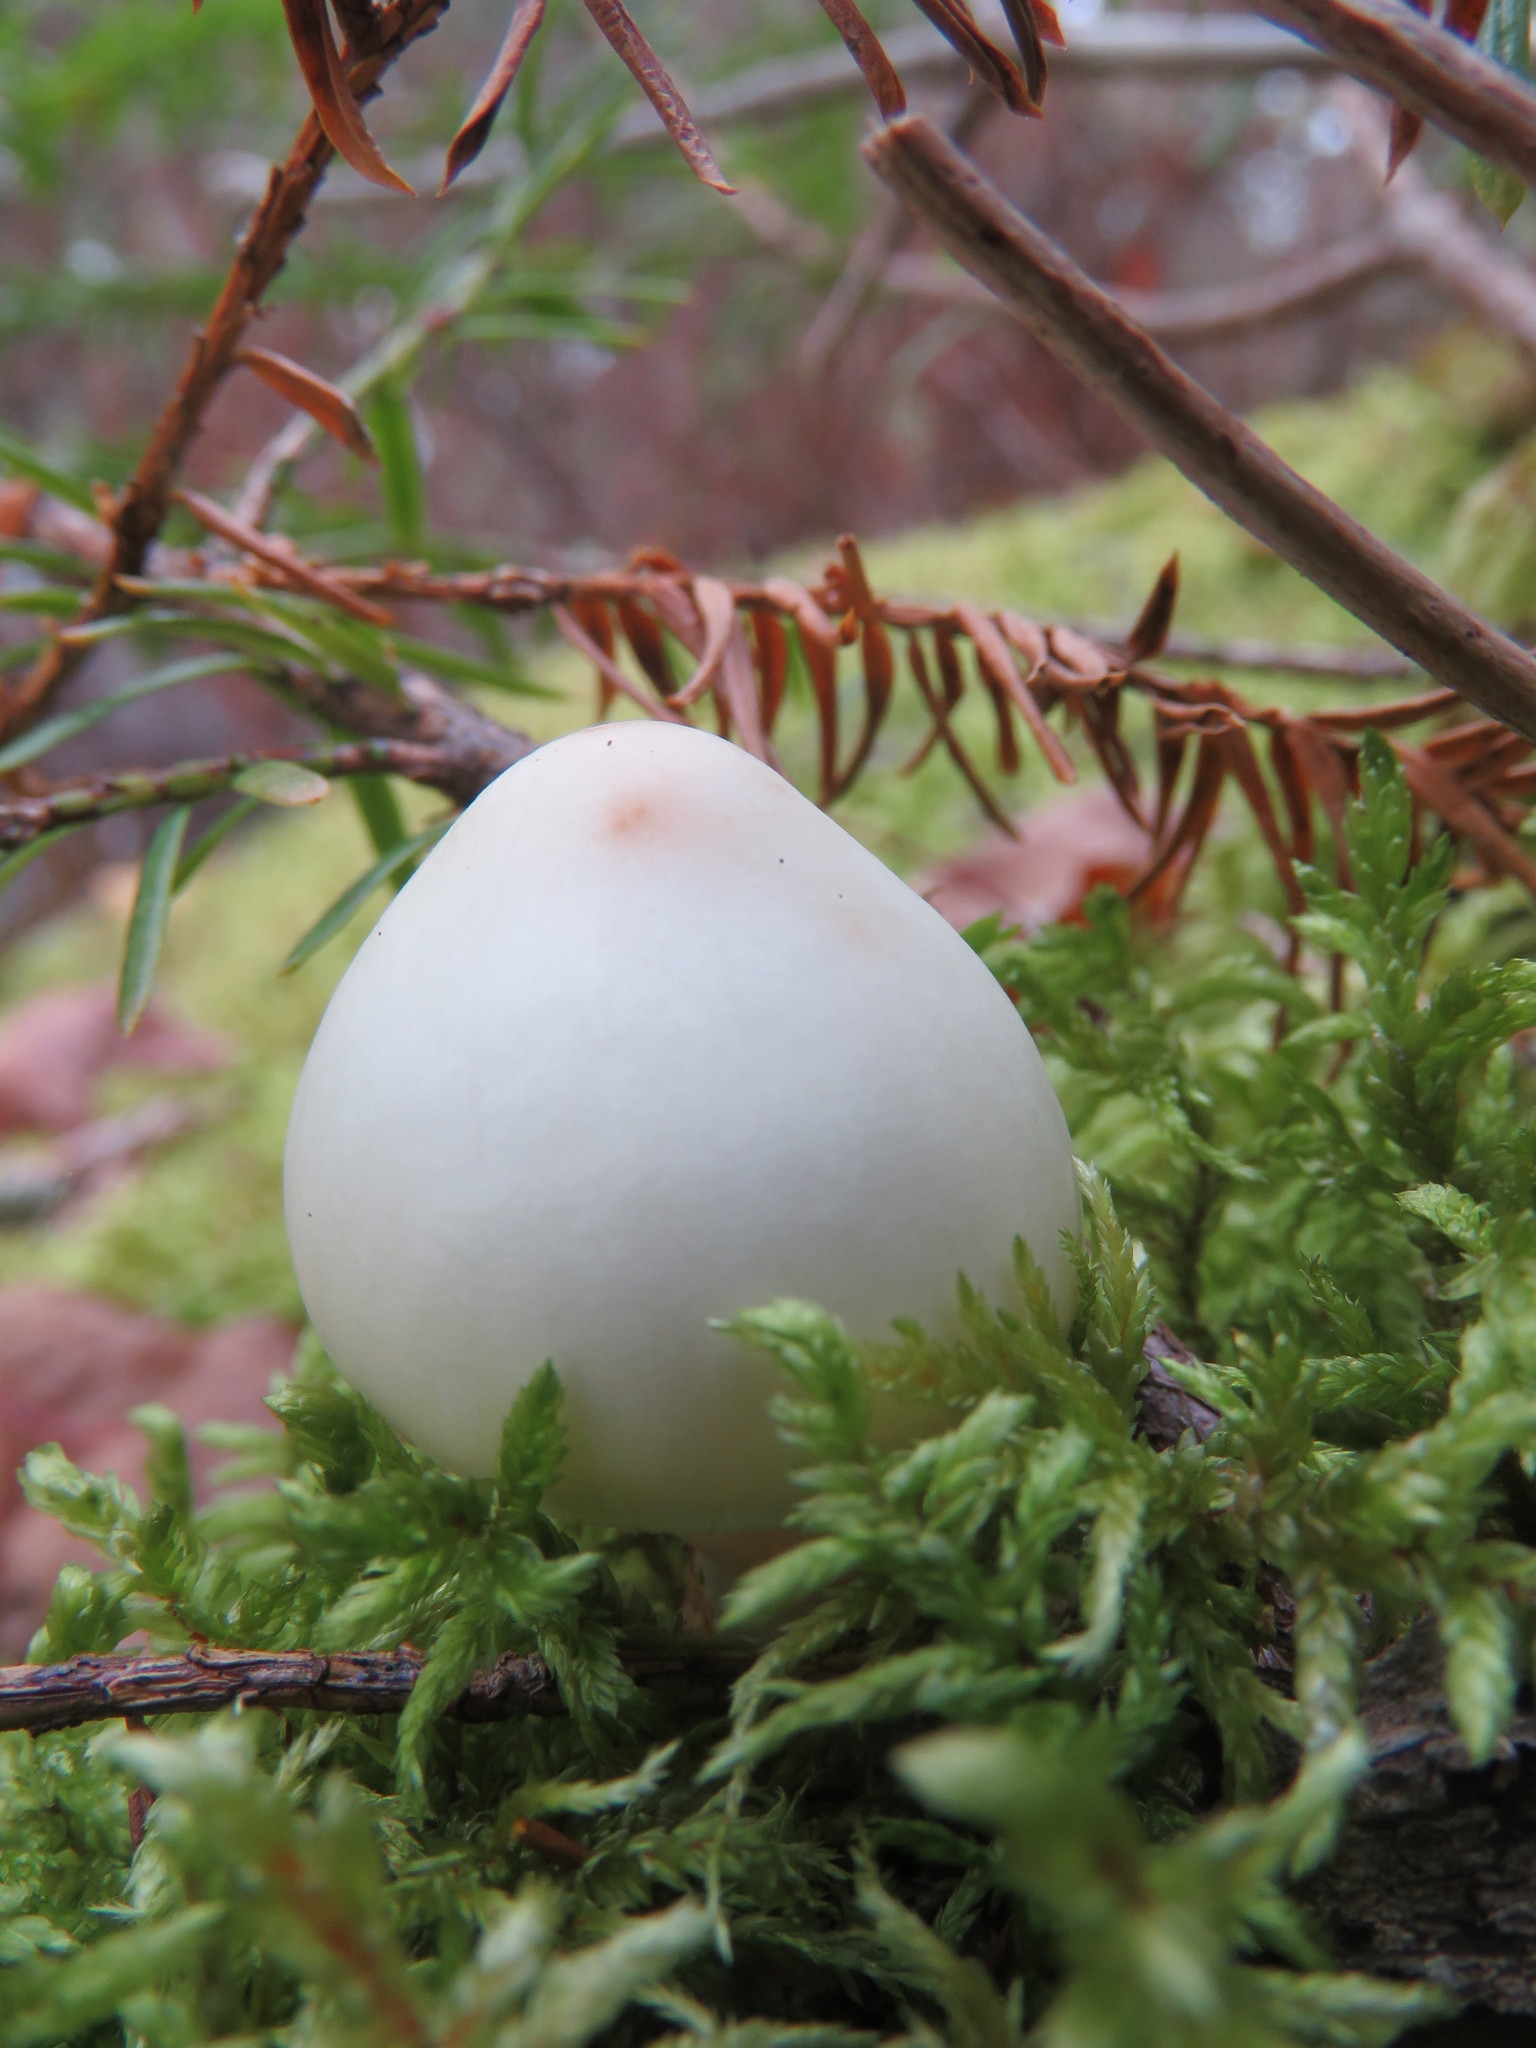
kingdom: Fungi
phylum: Basidiomycota
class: Agaricomycetes
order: Agaricales
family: Amanitaceae
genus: Amanita
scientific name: Amanita amerivirosa
